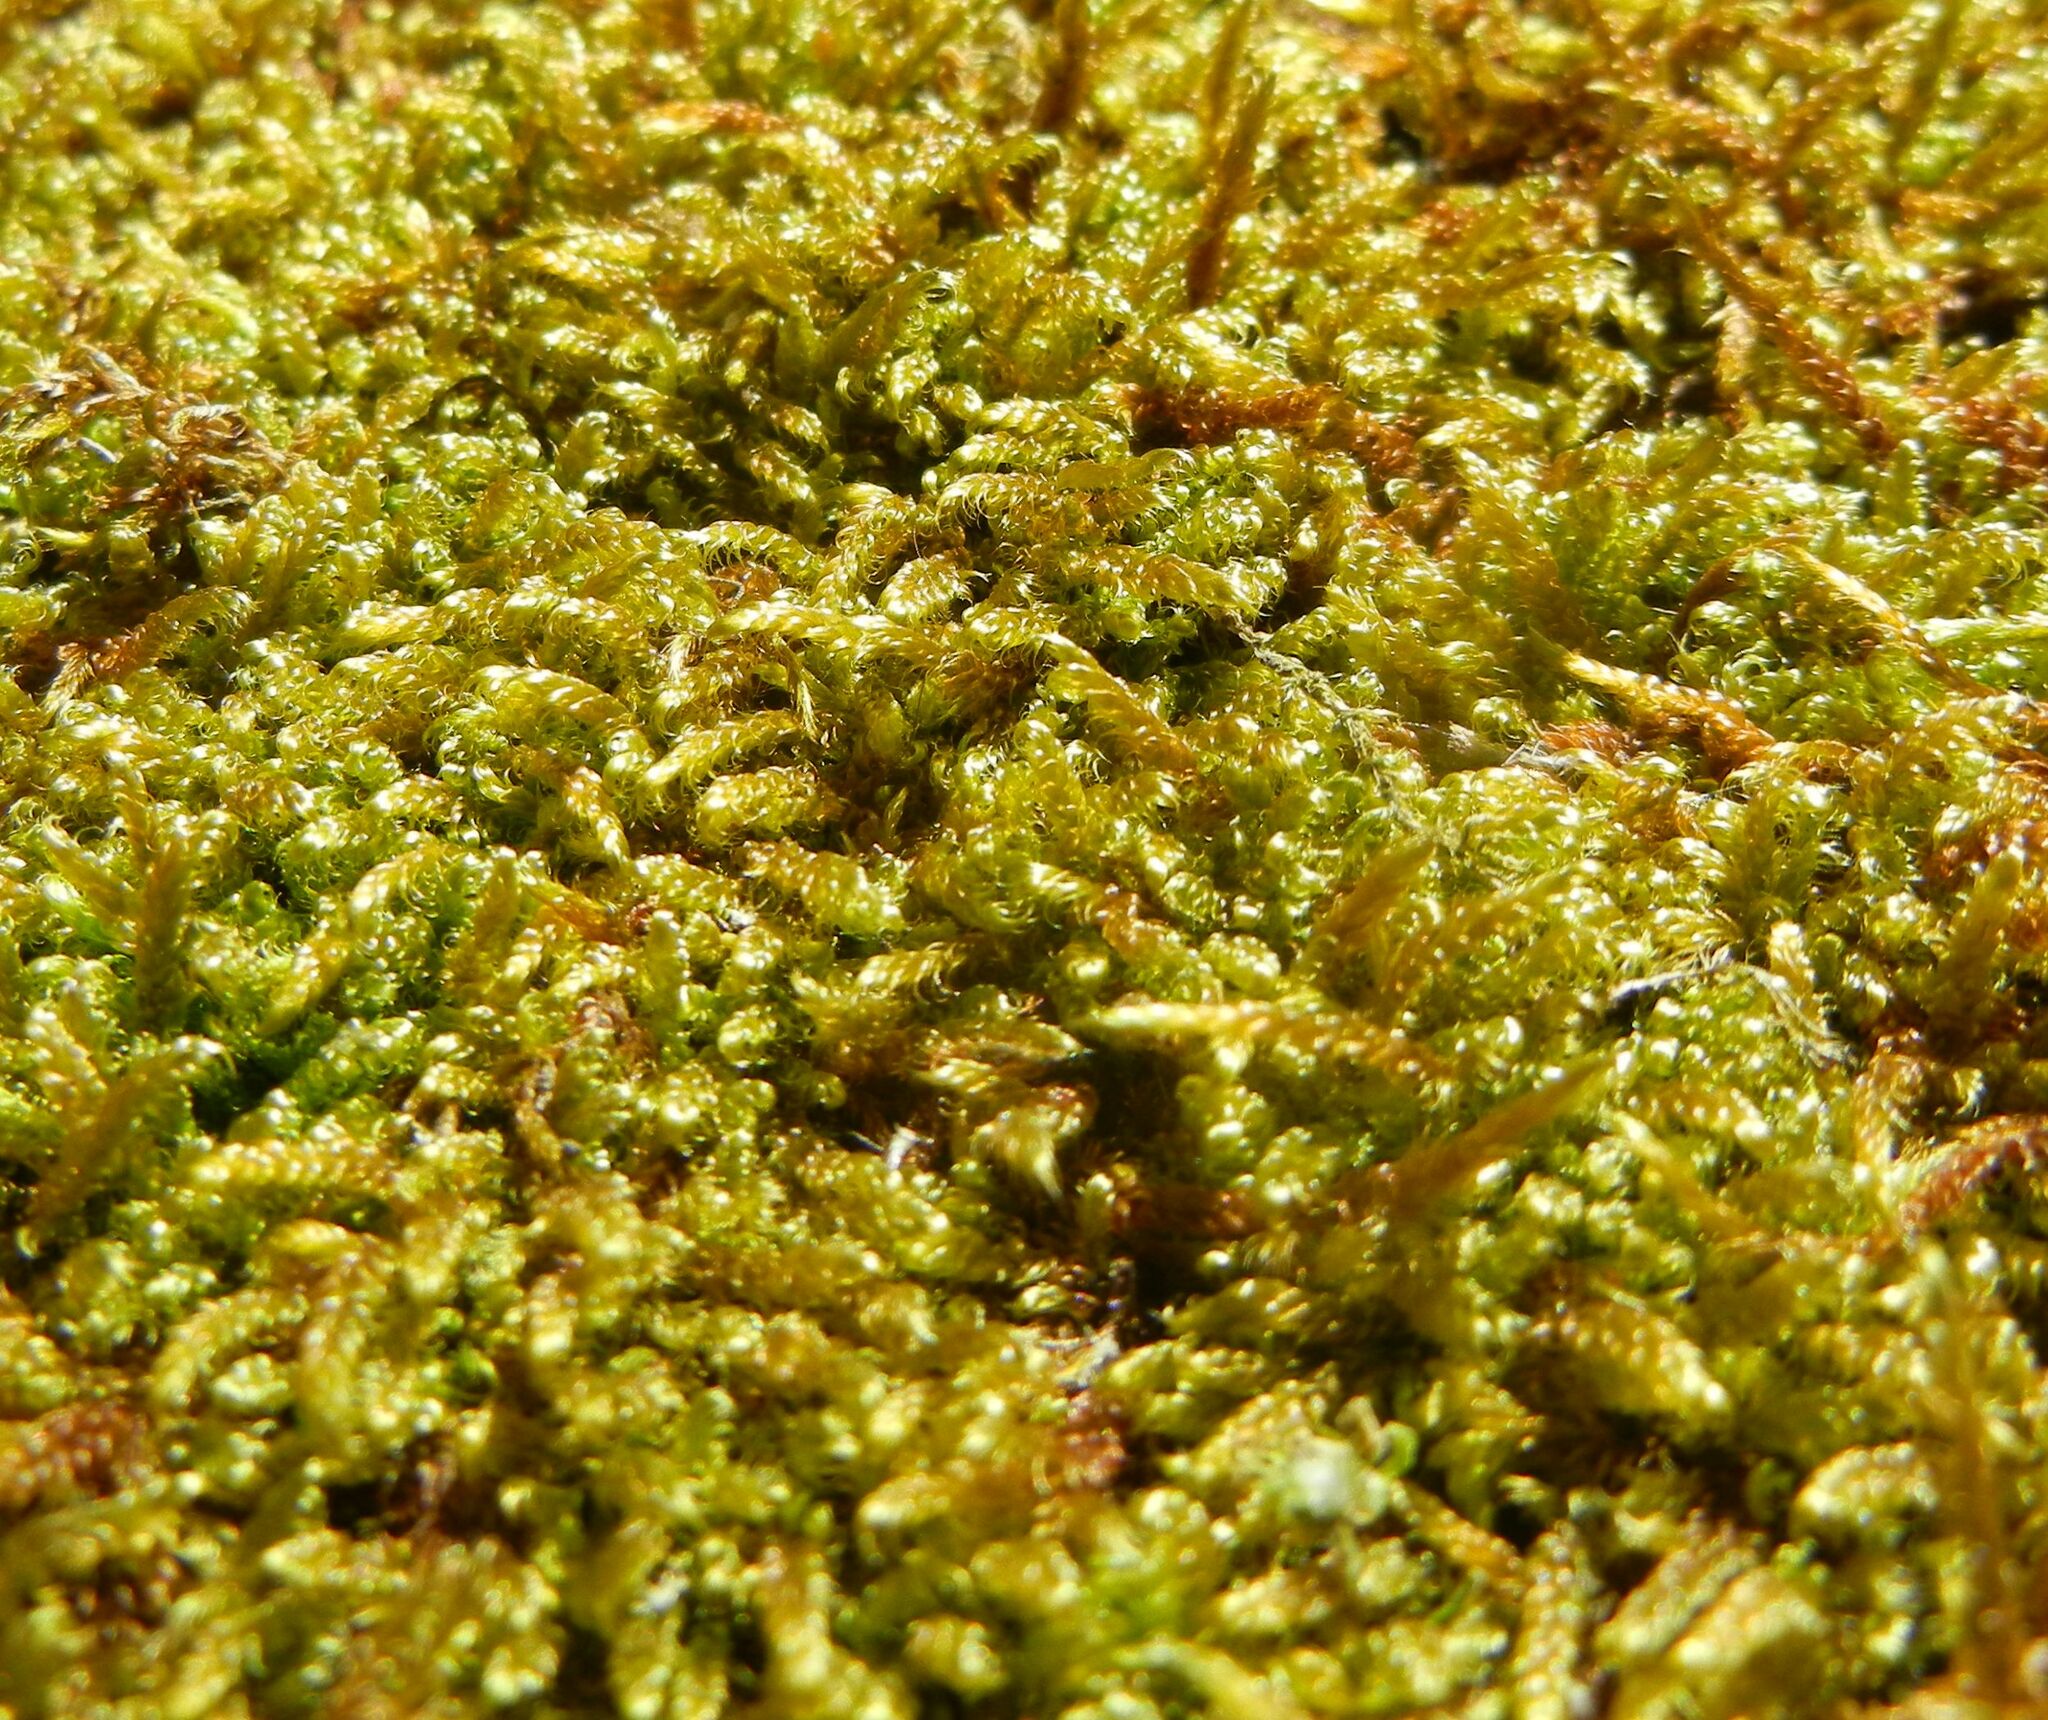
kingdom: Plantae
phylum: Bryophyta
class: Bryopsida
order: Hypnales
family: Hypnaceae
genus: Hypnum
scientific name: Hypnum cupressiforme
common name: Cypress-leaved plait-moss
